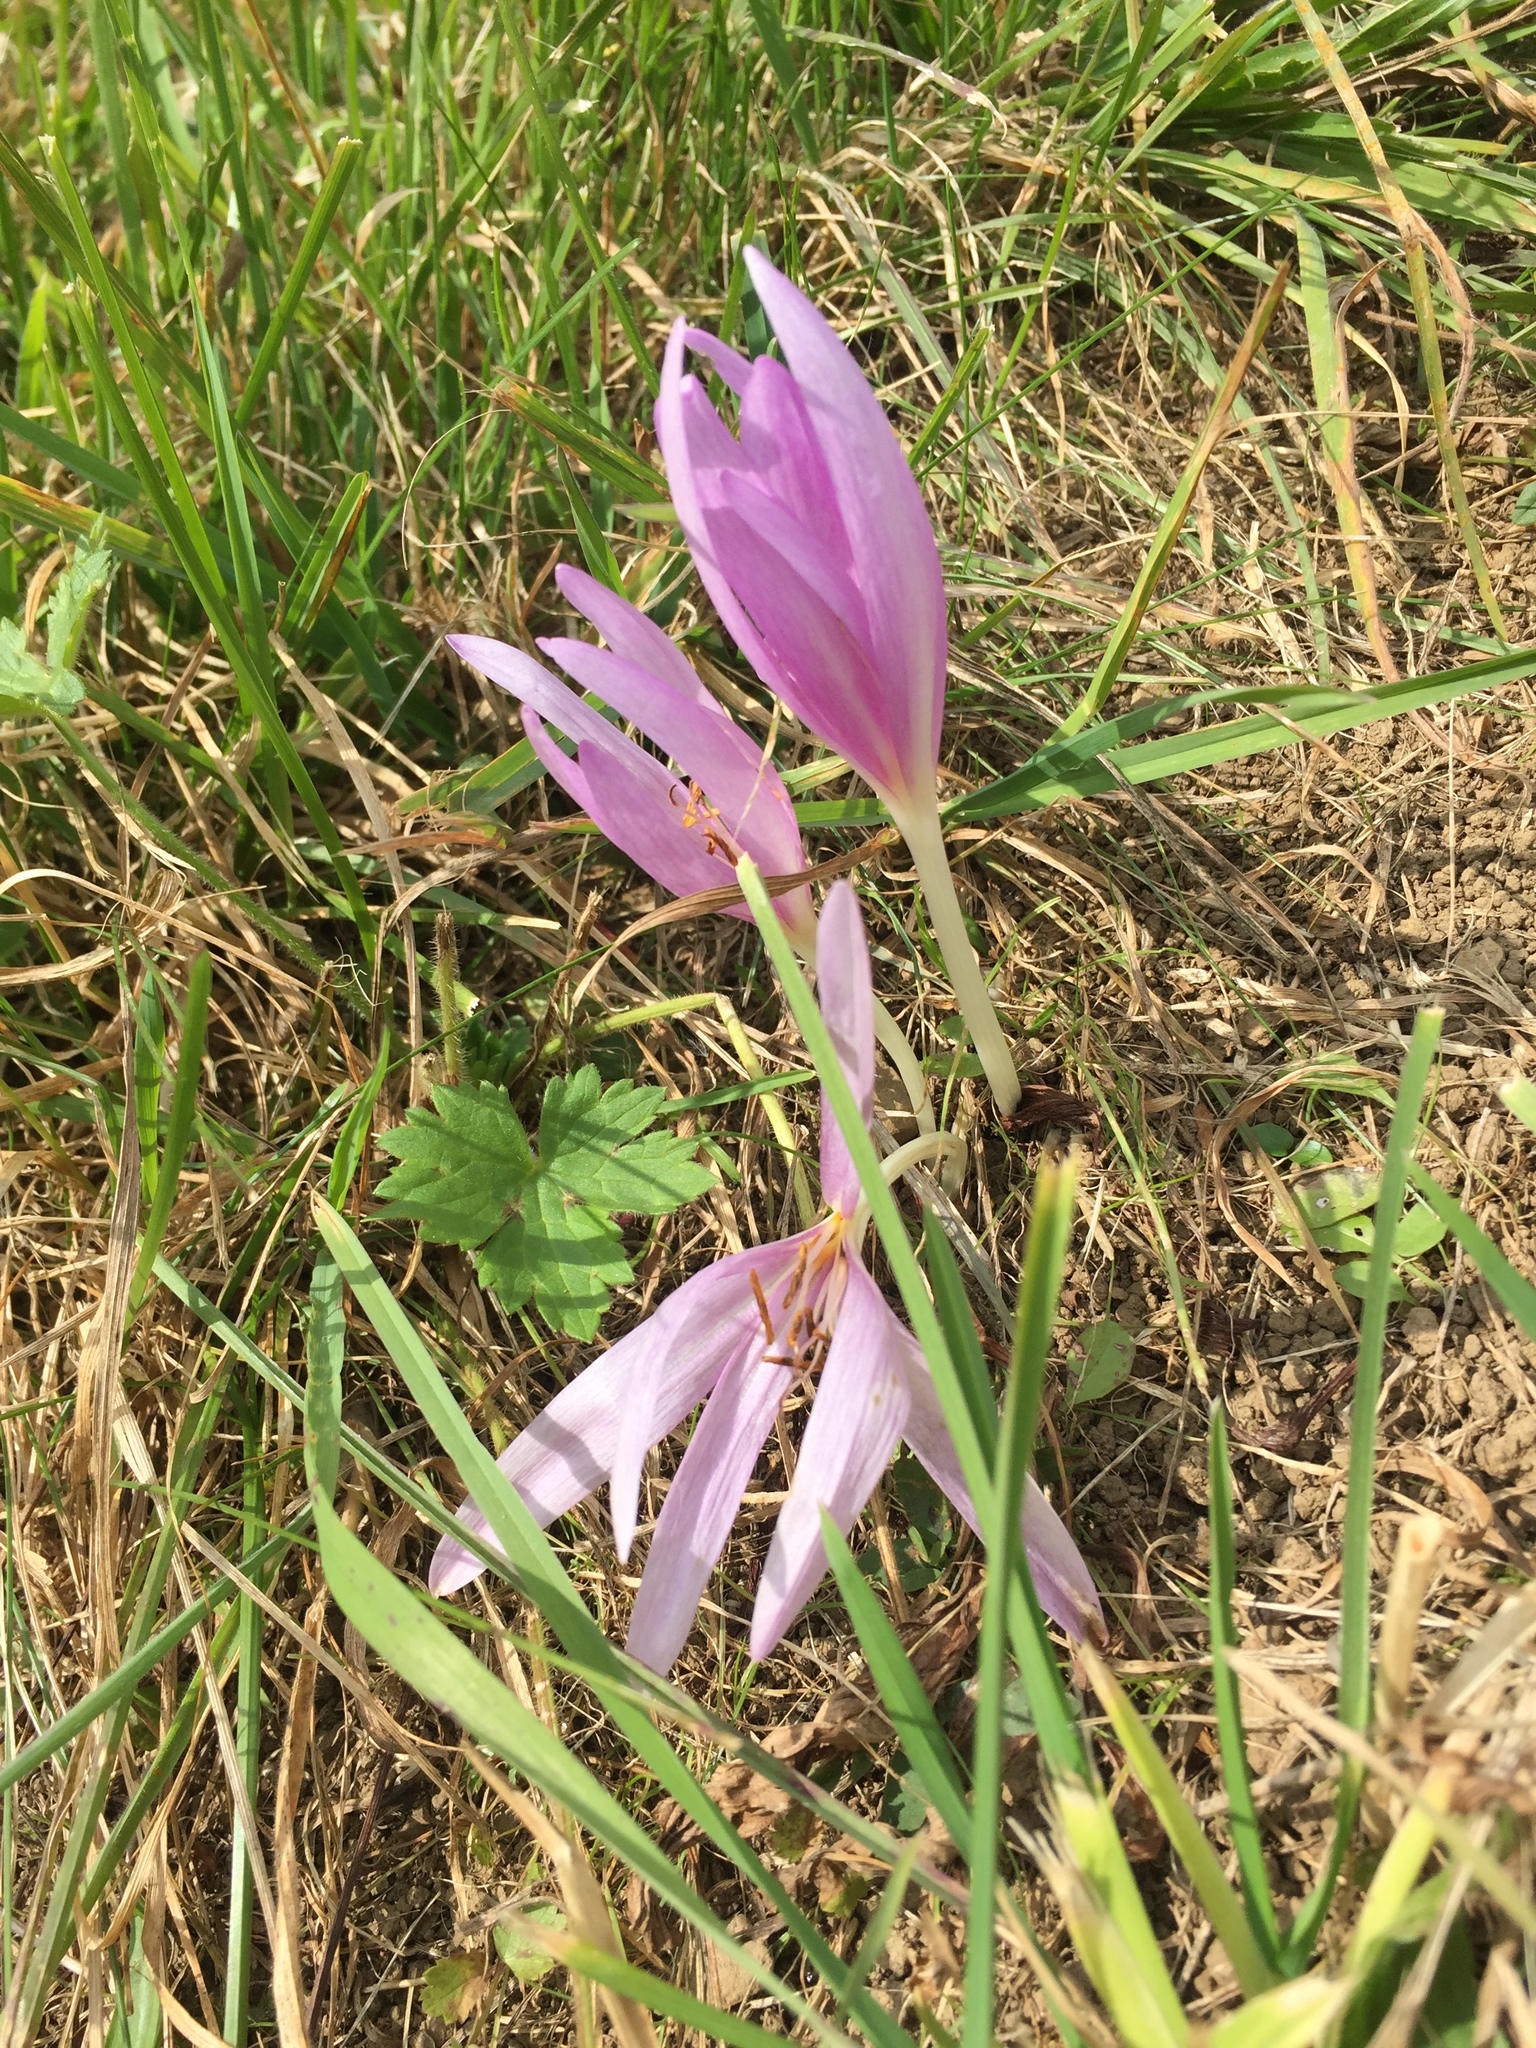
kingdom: Plantae
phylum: Tracheophyta
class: Liliopsida
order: Liliales
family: Colchicaceae
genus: Colchicum
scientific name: Colchicum autumnale
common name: Autumn crocus
